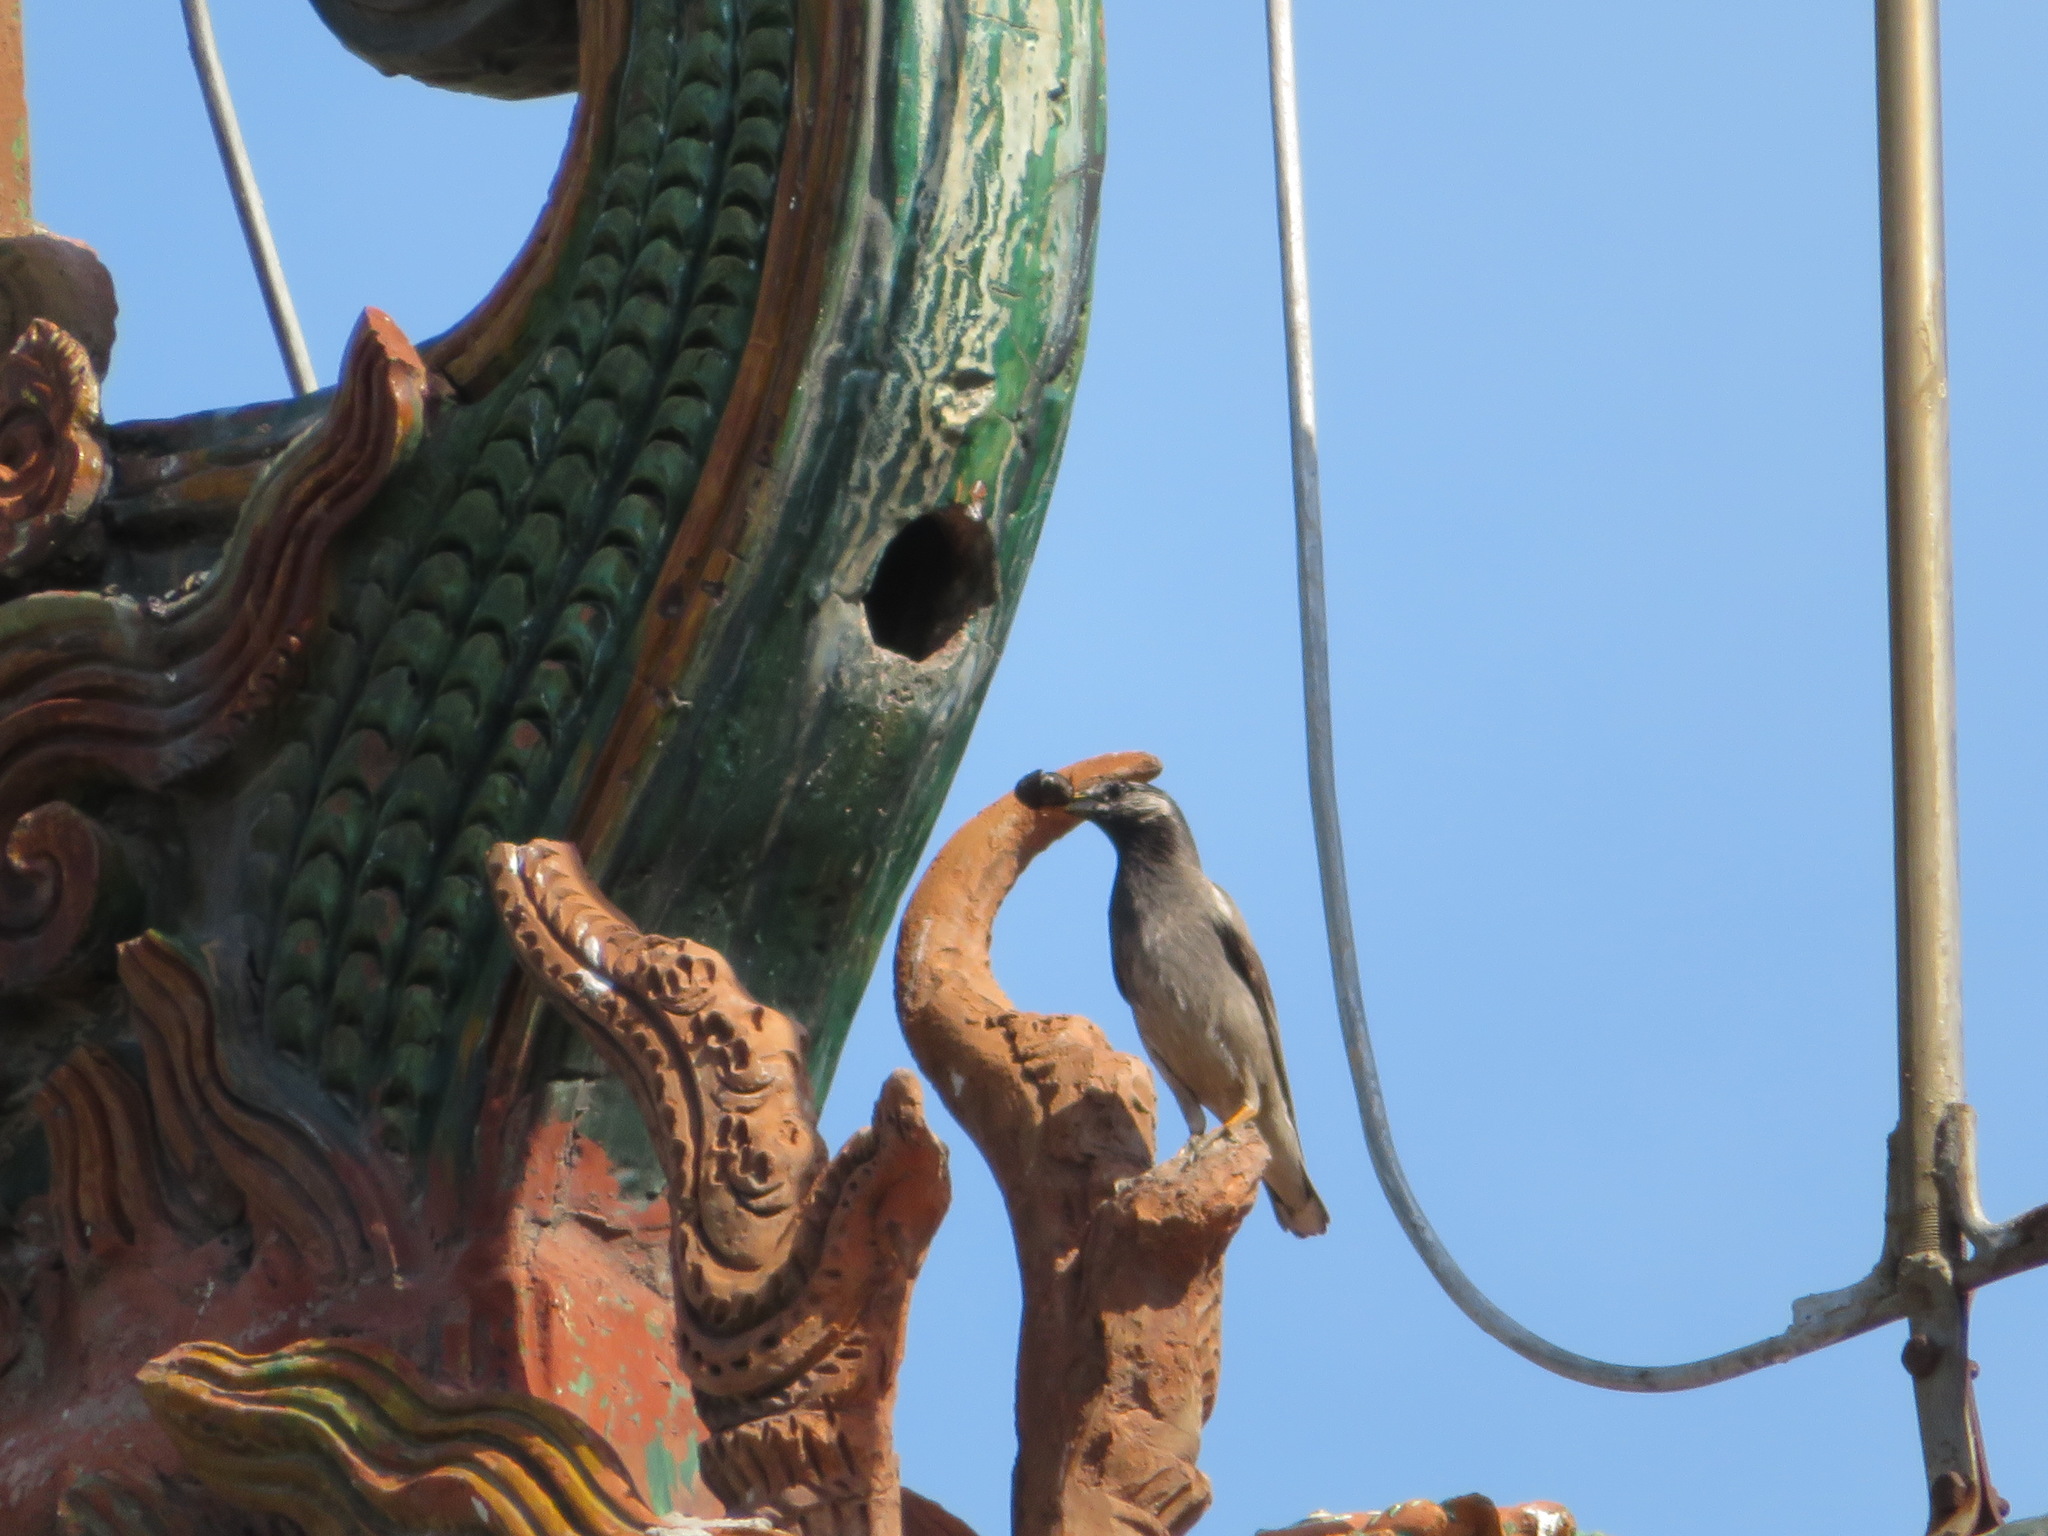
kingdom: Animalia
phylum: Chordata
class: Aves
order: Passeriformes
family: Sturnidae
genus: Spodiopsar
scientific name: Spodiopsar cineraceus
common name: White-cheeked starling
